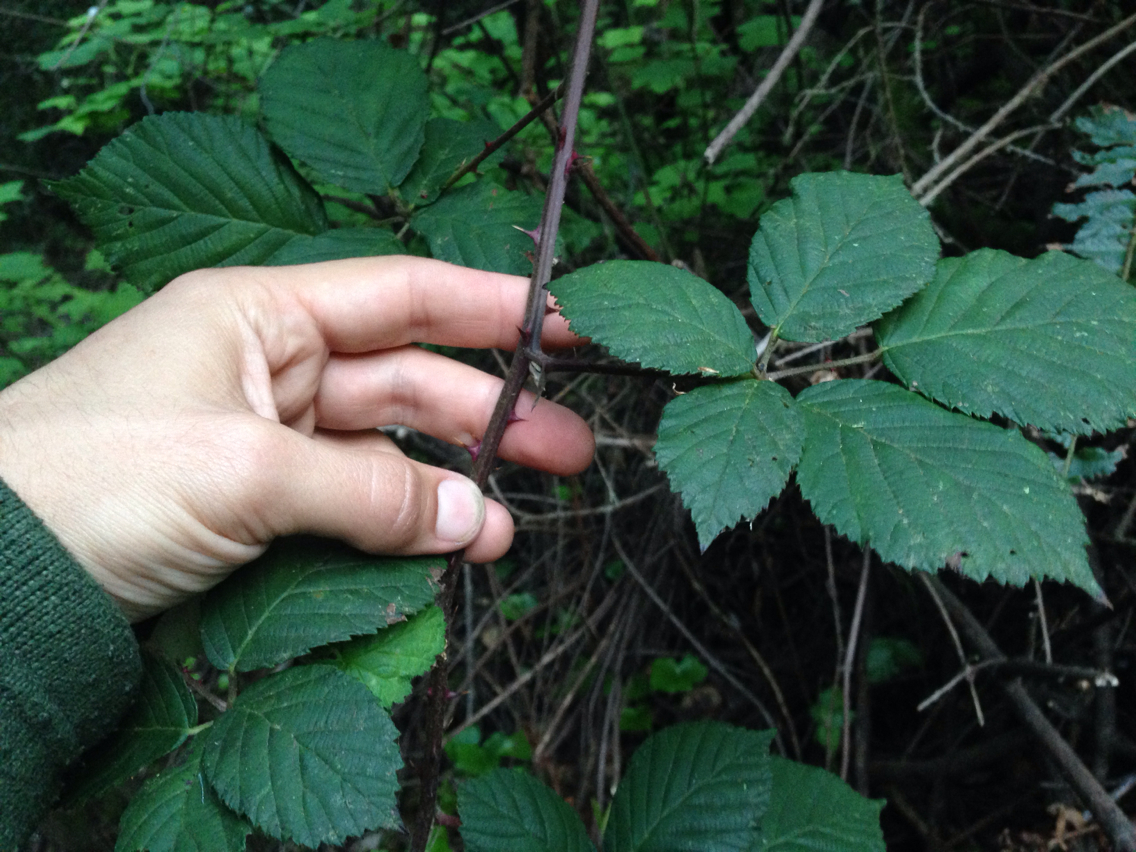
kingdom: Plantae
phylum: Tracheophyta
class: Magnoliopsida
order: Rosales
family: Rosaceae
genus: Rubus
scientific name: Rubus armeniacus
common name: Himalayan blackberry
